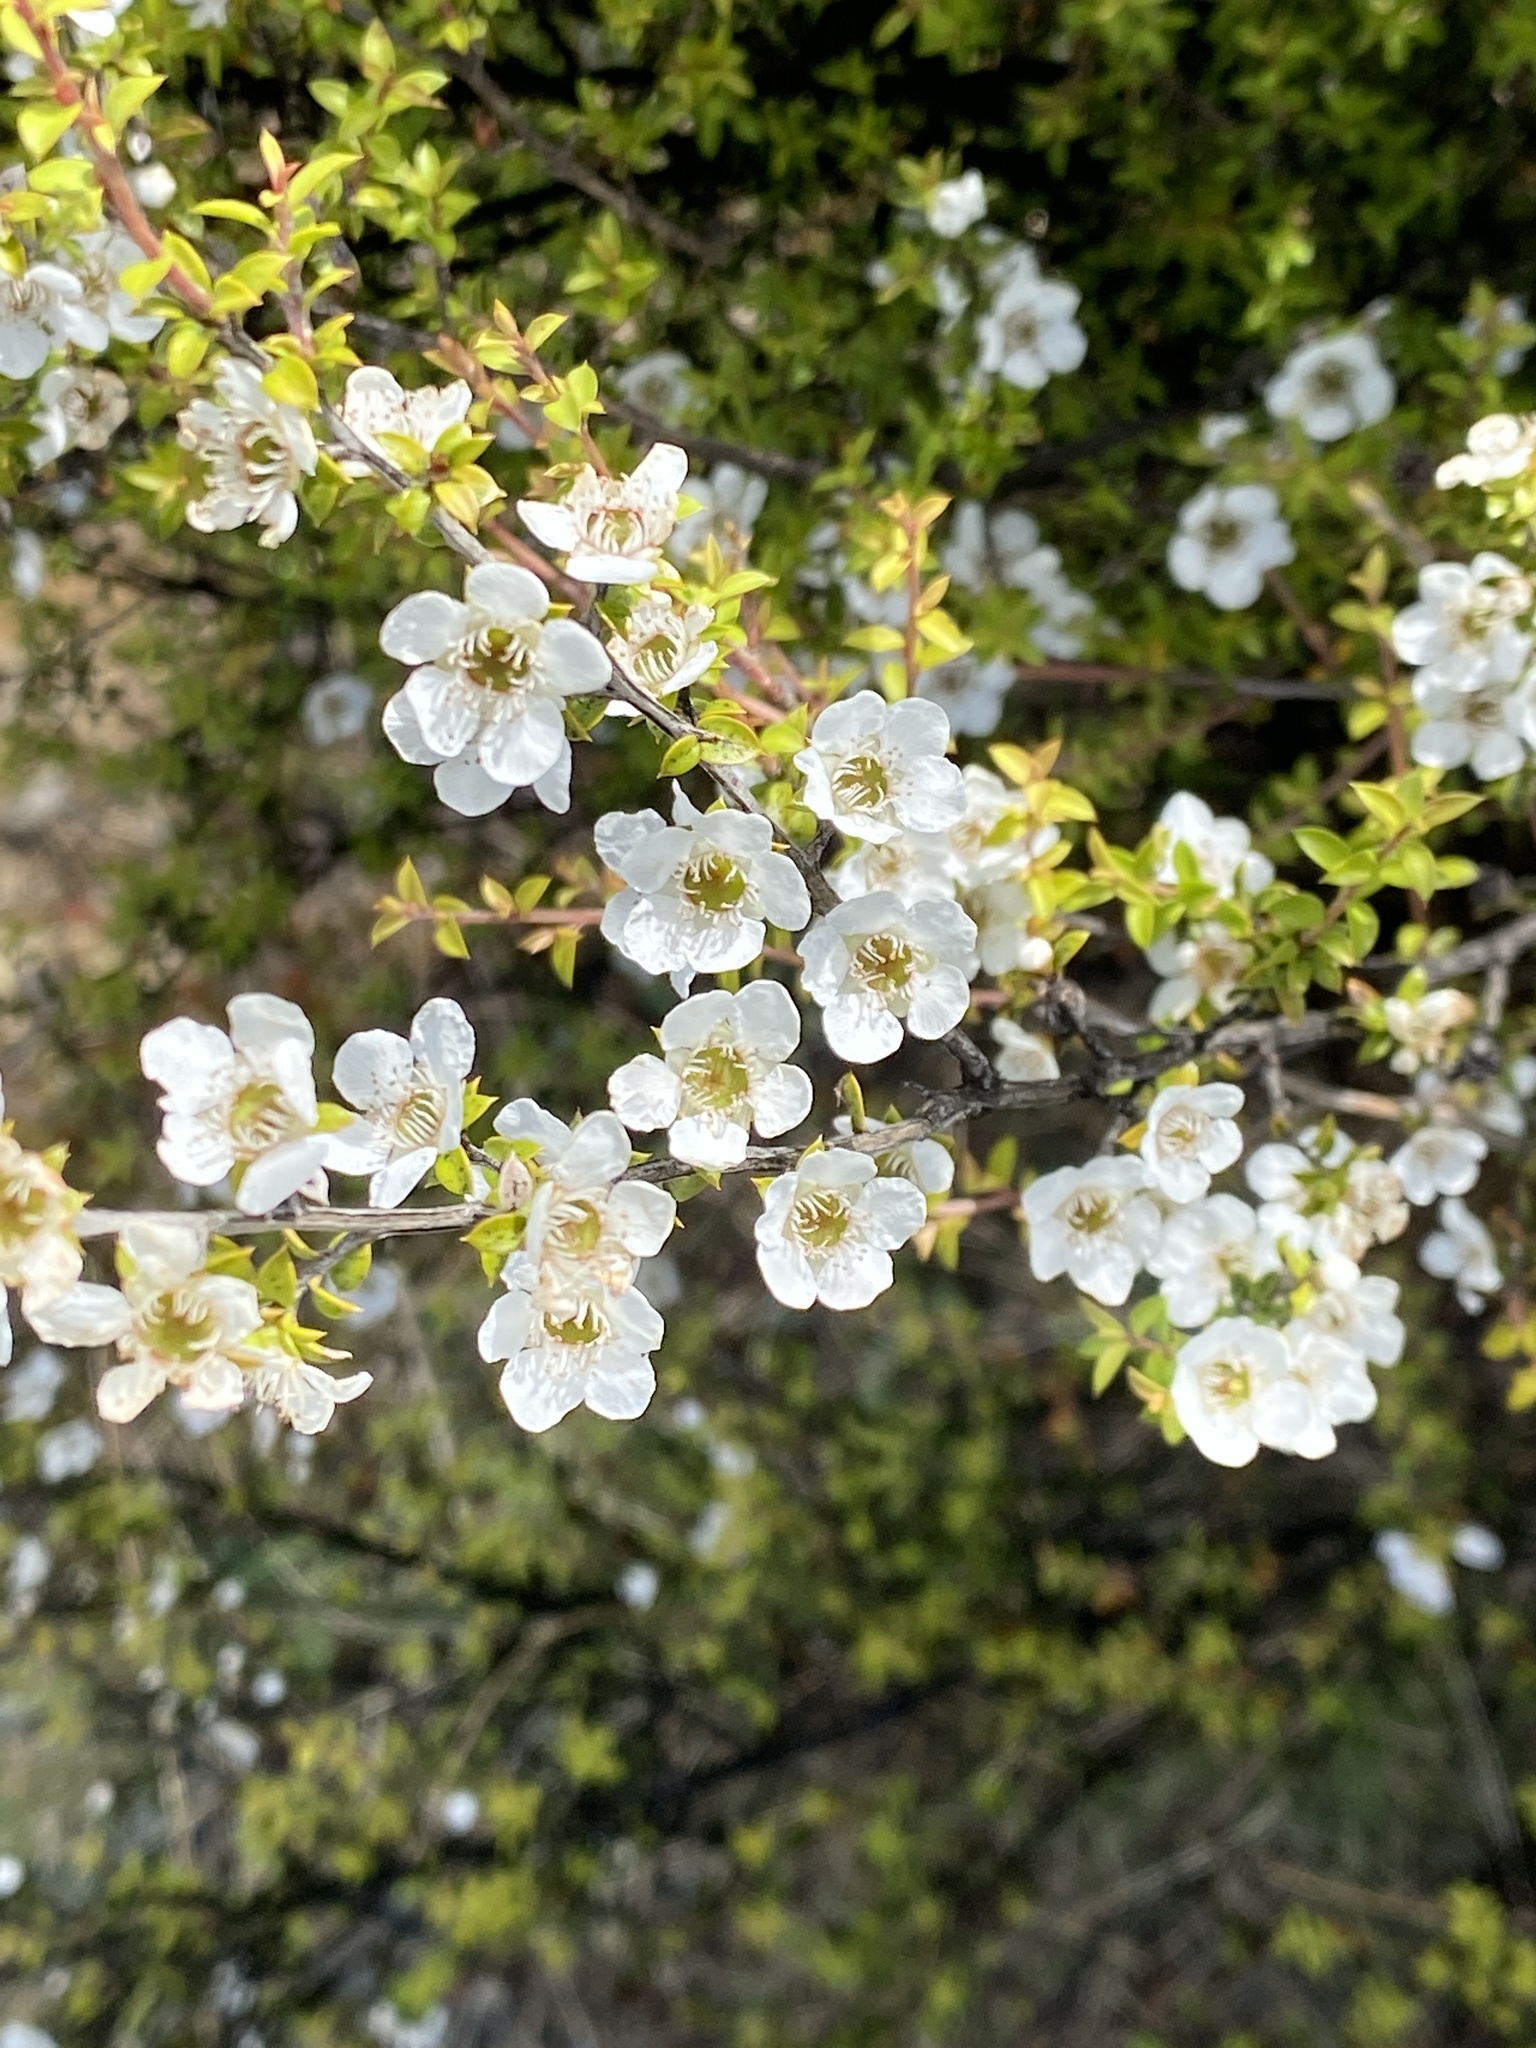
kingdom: Plantae
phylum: Tracheophyta
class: Magnoliopsida
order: Myrtales
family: Myrtaceae
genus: Leptospermum
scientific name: Leptospermum scoparium
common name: Broom tea-tree
